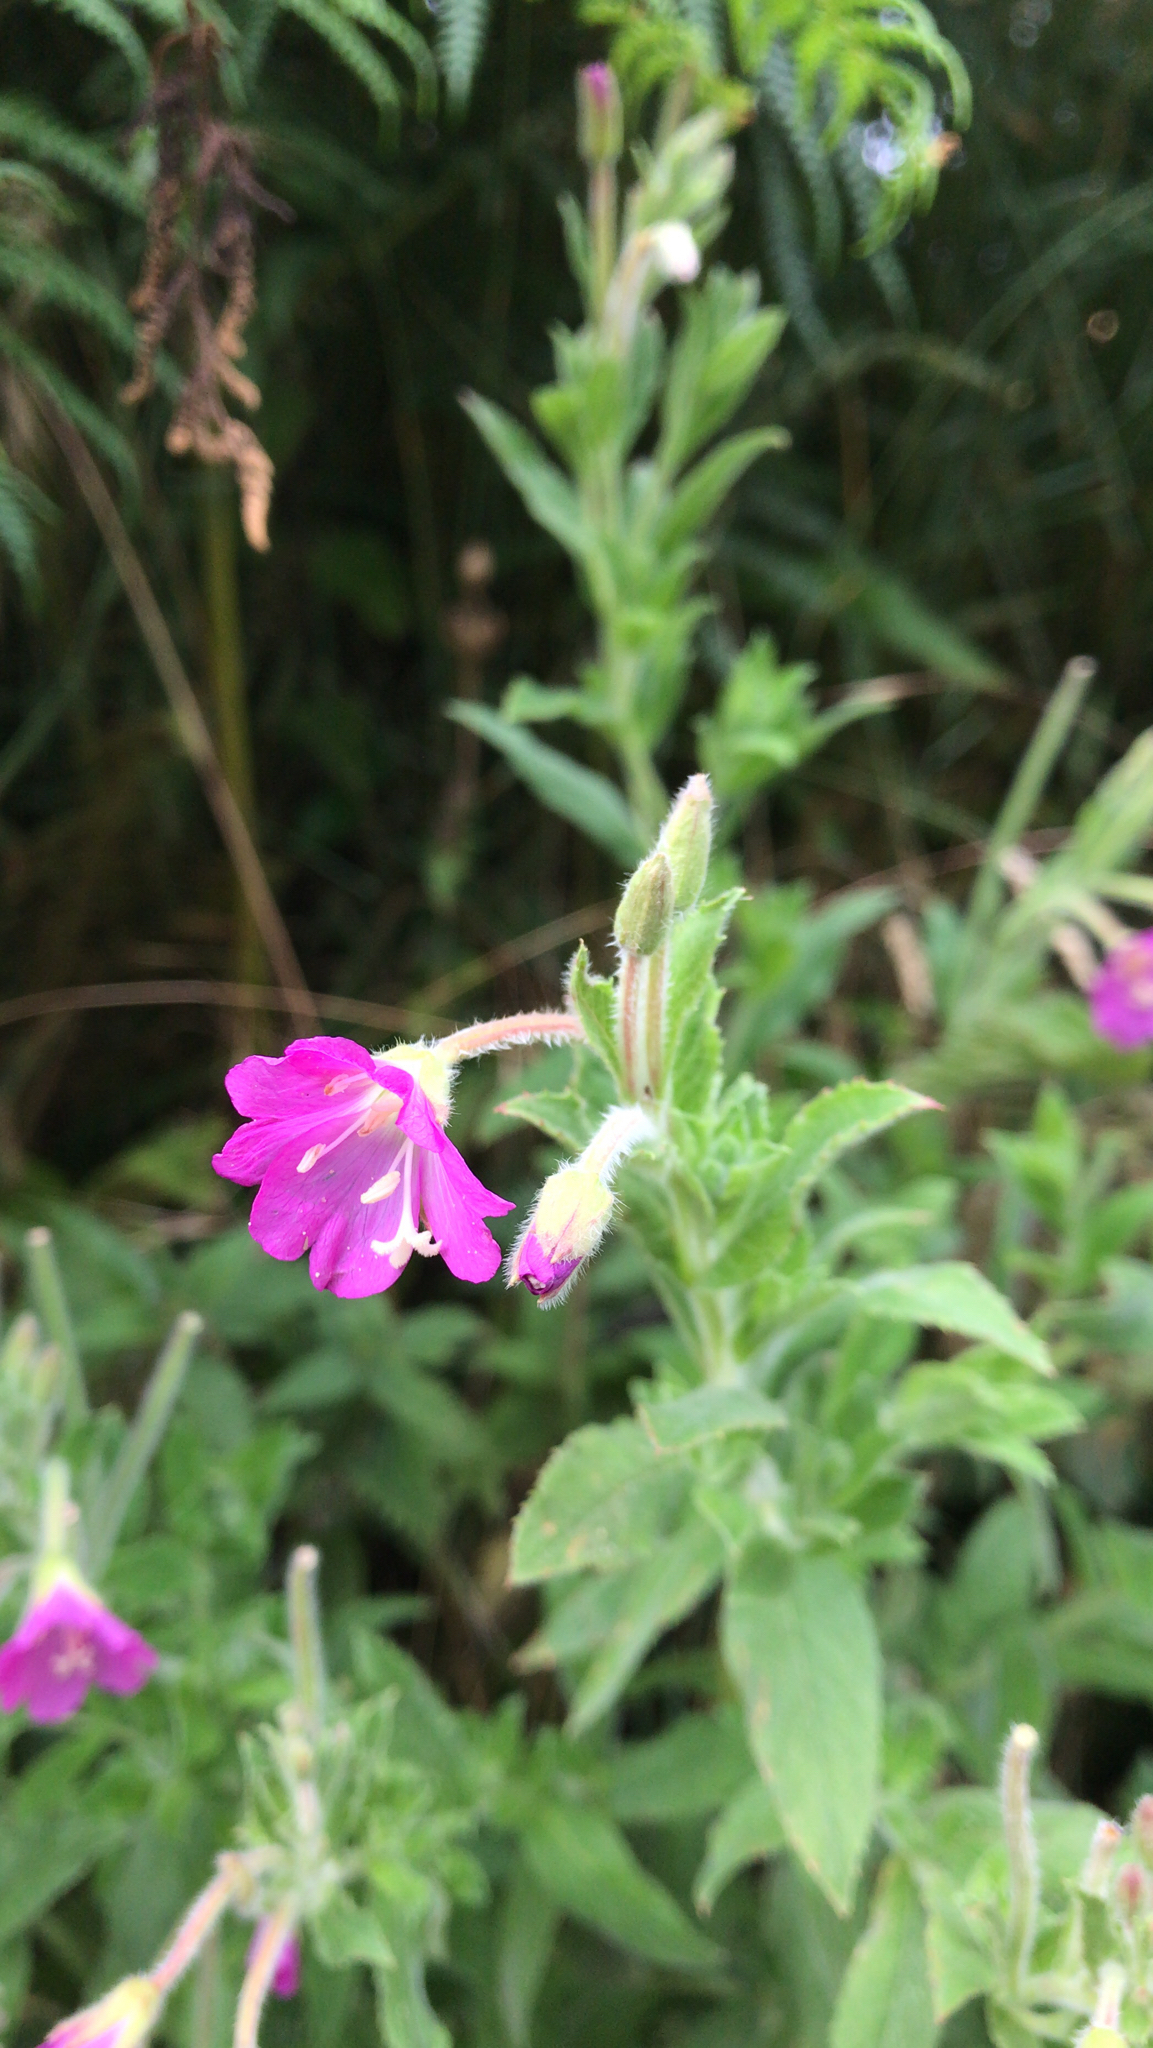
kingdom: Plantae
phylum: Tracheophyta
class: Magnoliopsida
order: Myrtales
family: Onagraceae
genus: Epilobium
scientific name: Epilobium hirsutum
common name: Great willowherb
